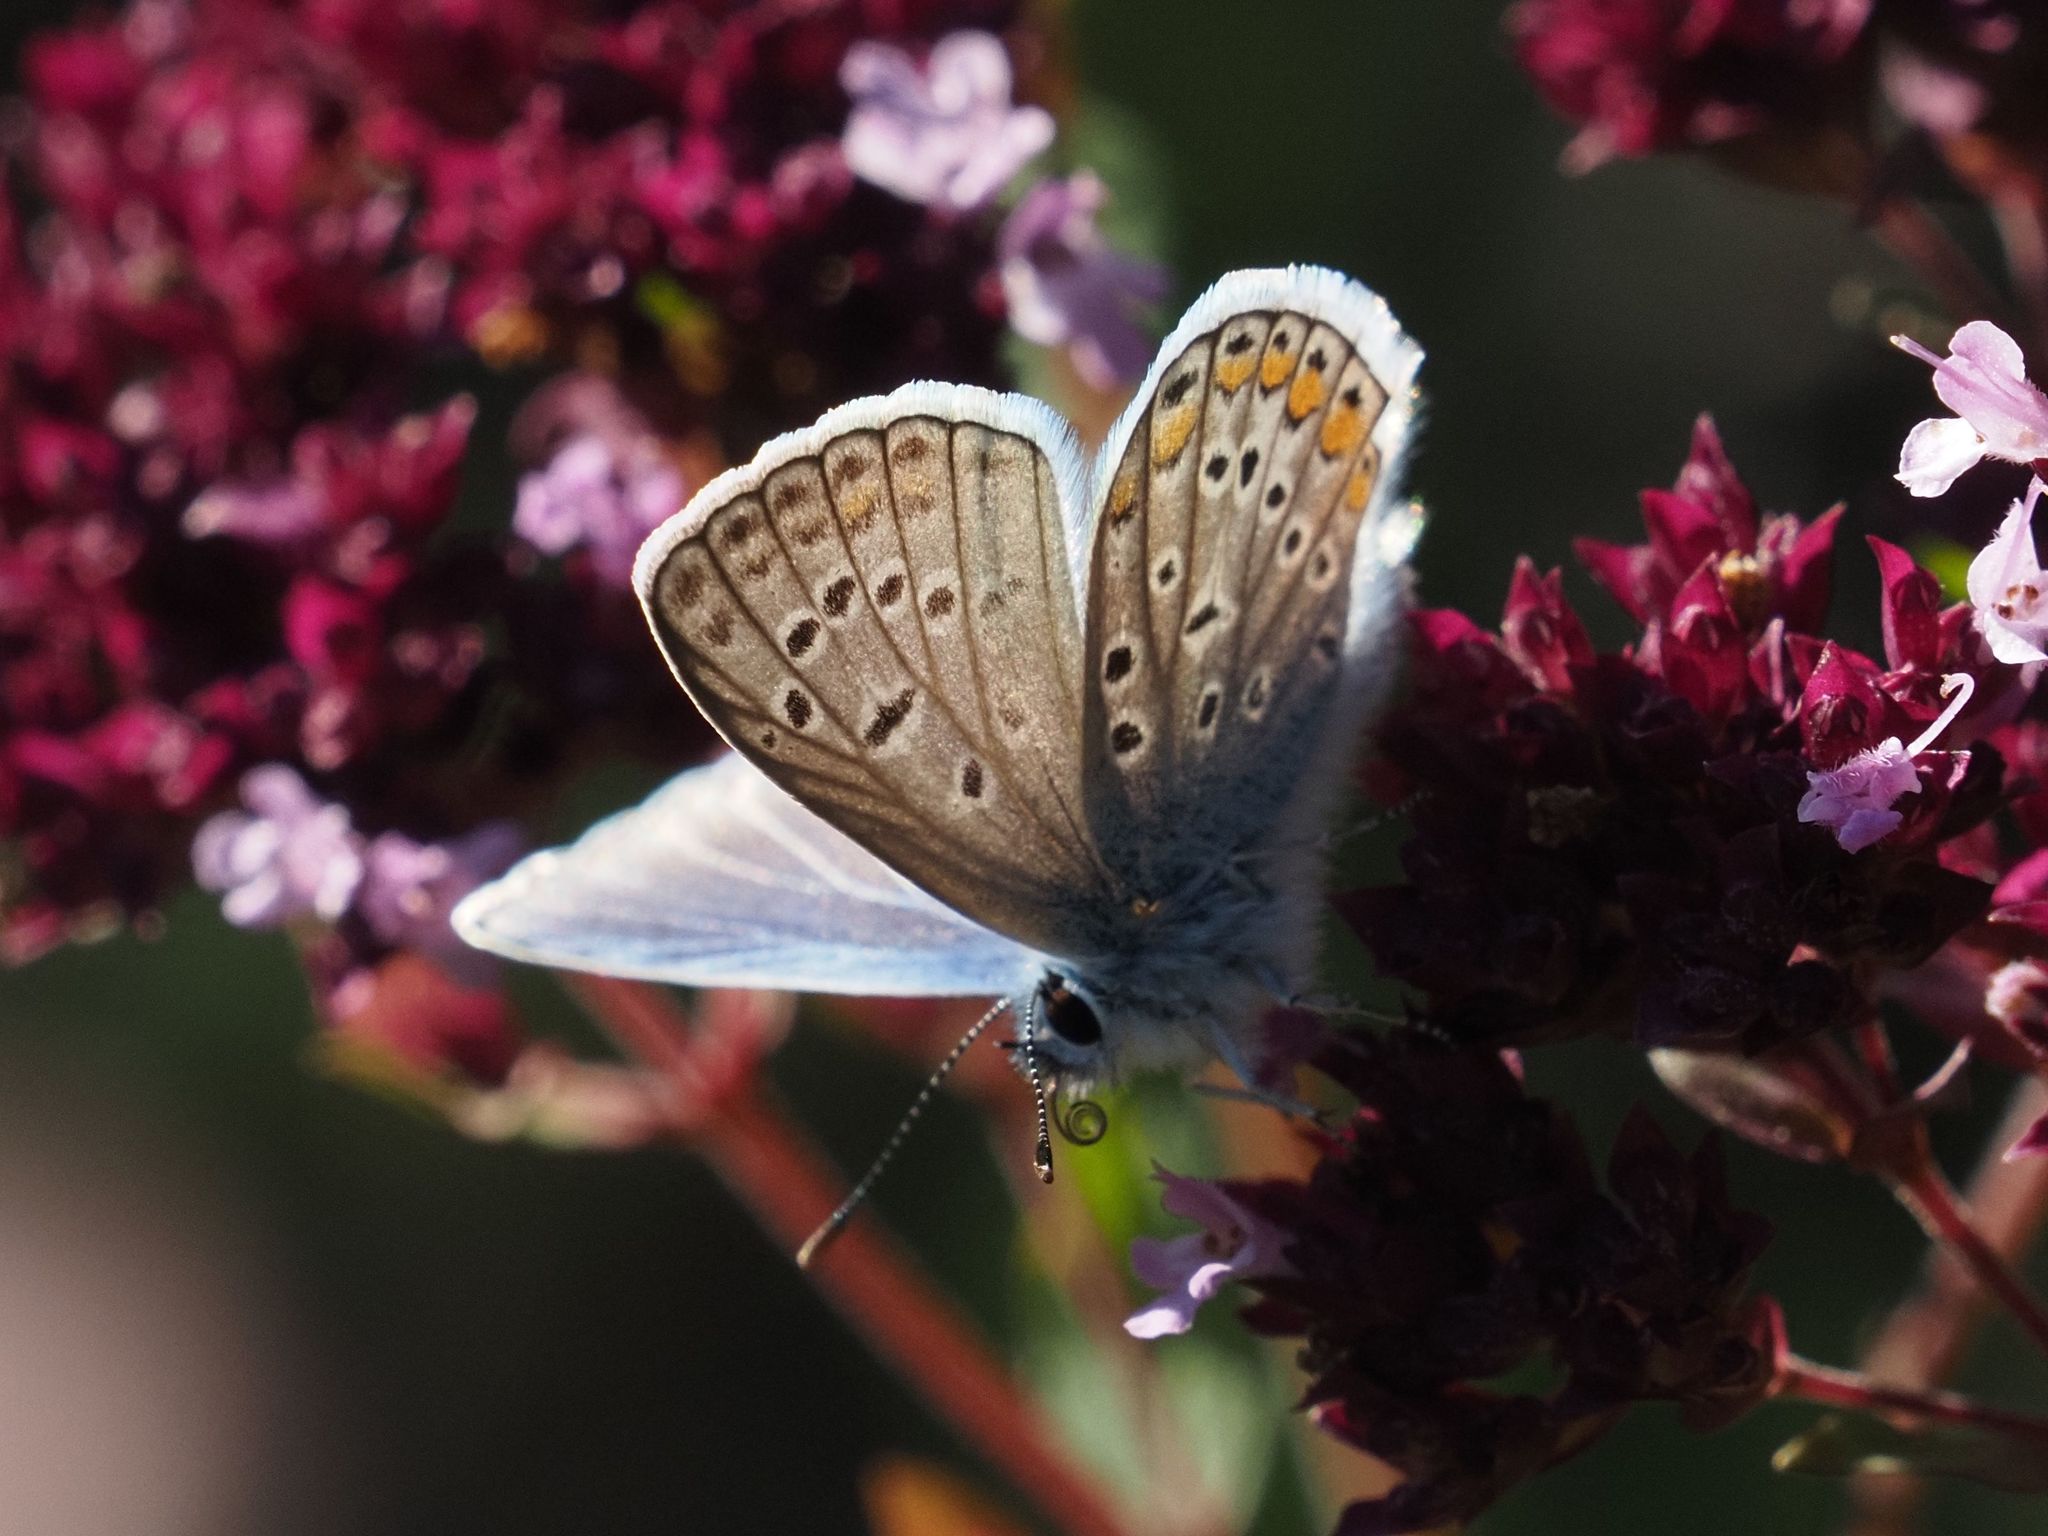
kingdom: Animalia
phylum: Arthropoda
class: Insecta
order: Lepidoptera
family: Lycaenidae
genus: Polyommatus
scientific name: Polyommatus icarus
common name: Common blue
